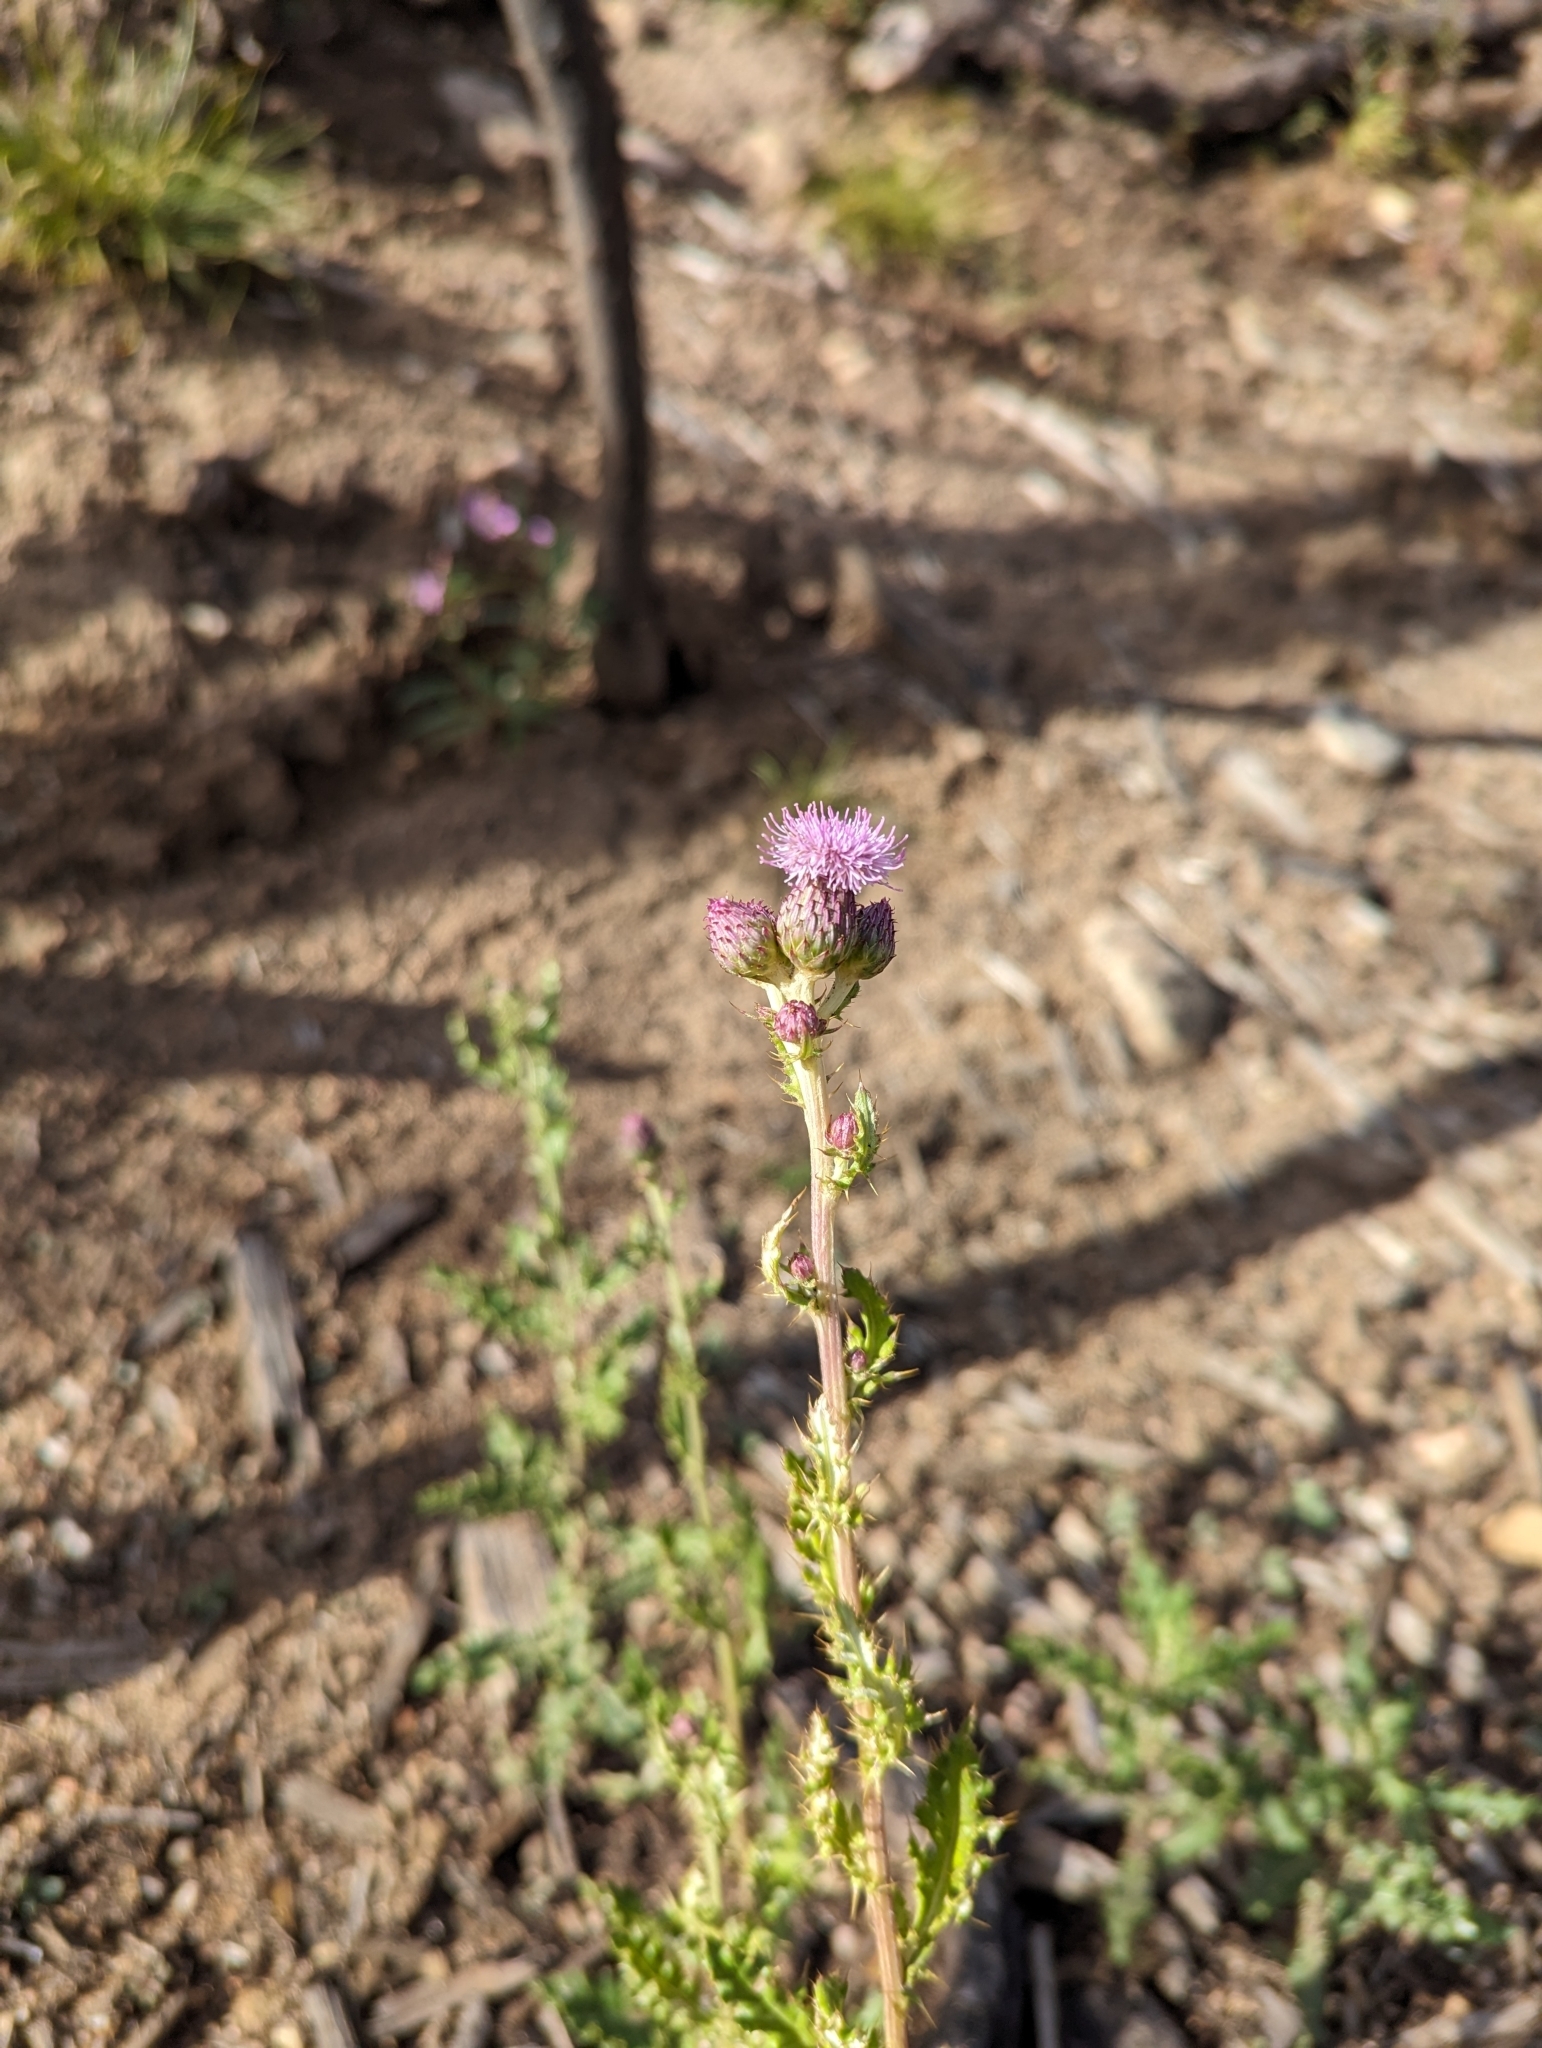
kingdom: Plantae
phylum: Tracheophyta
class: Magnoliopsida
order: Asterales
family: Asteraceae
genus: Cirsium
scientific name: Cirsium arvense
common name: Creeping thistle
